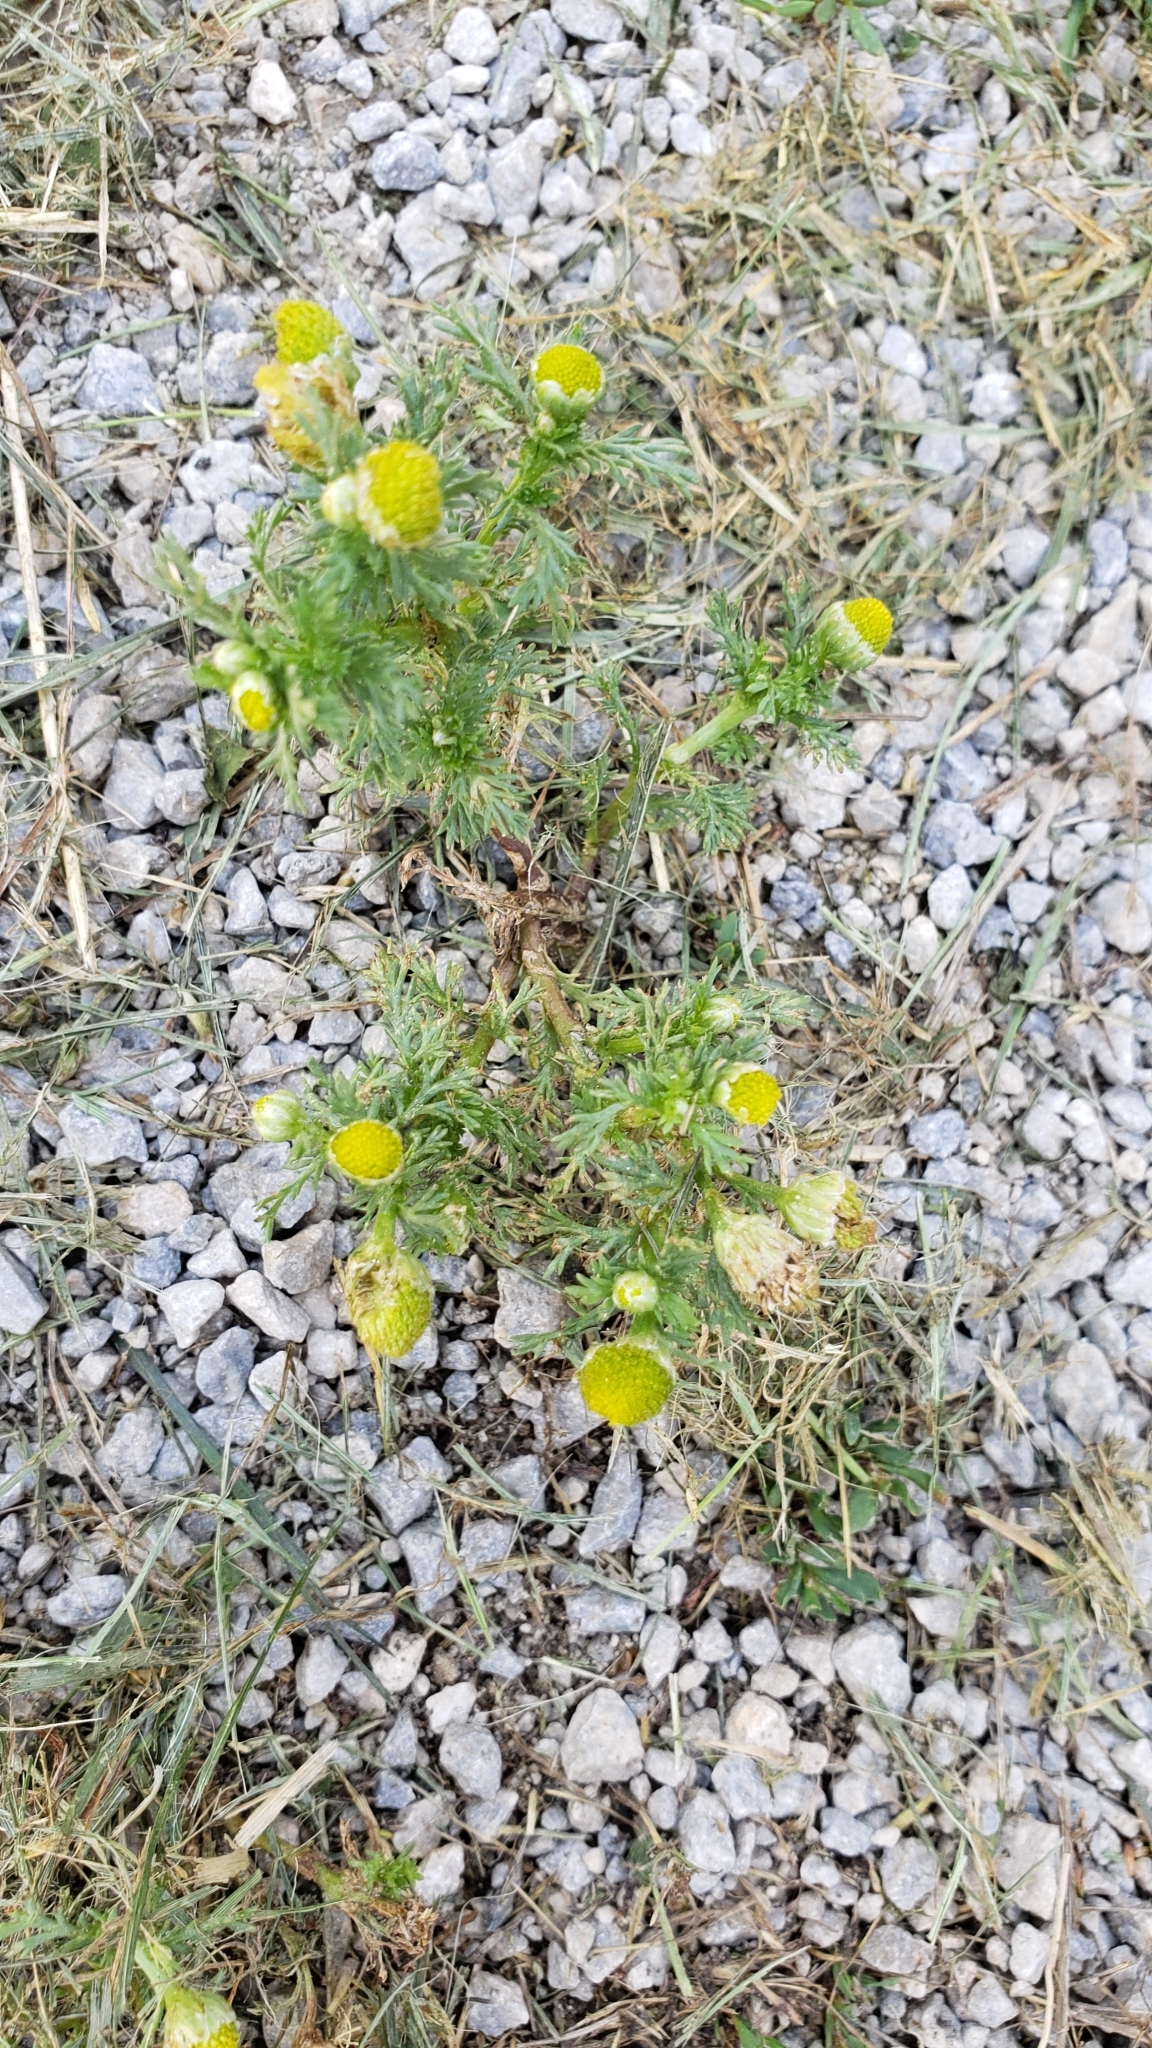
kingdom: Plantae
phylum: Tracheophyta
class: Magnoliopsida
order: Asterales
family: Asteraceae
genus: Matricaria
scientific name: Matricaria discoidea
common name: Disc mayweed
